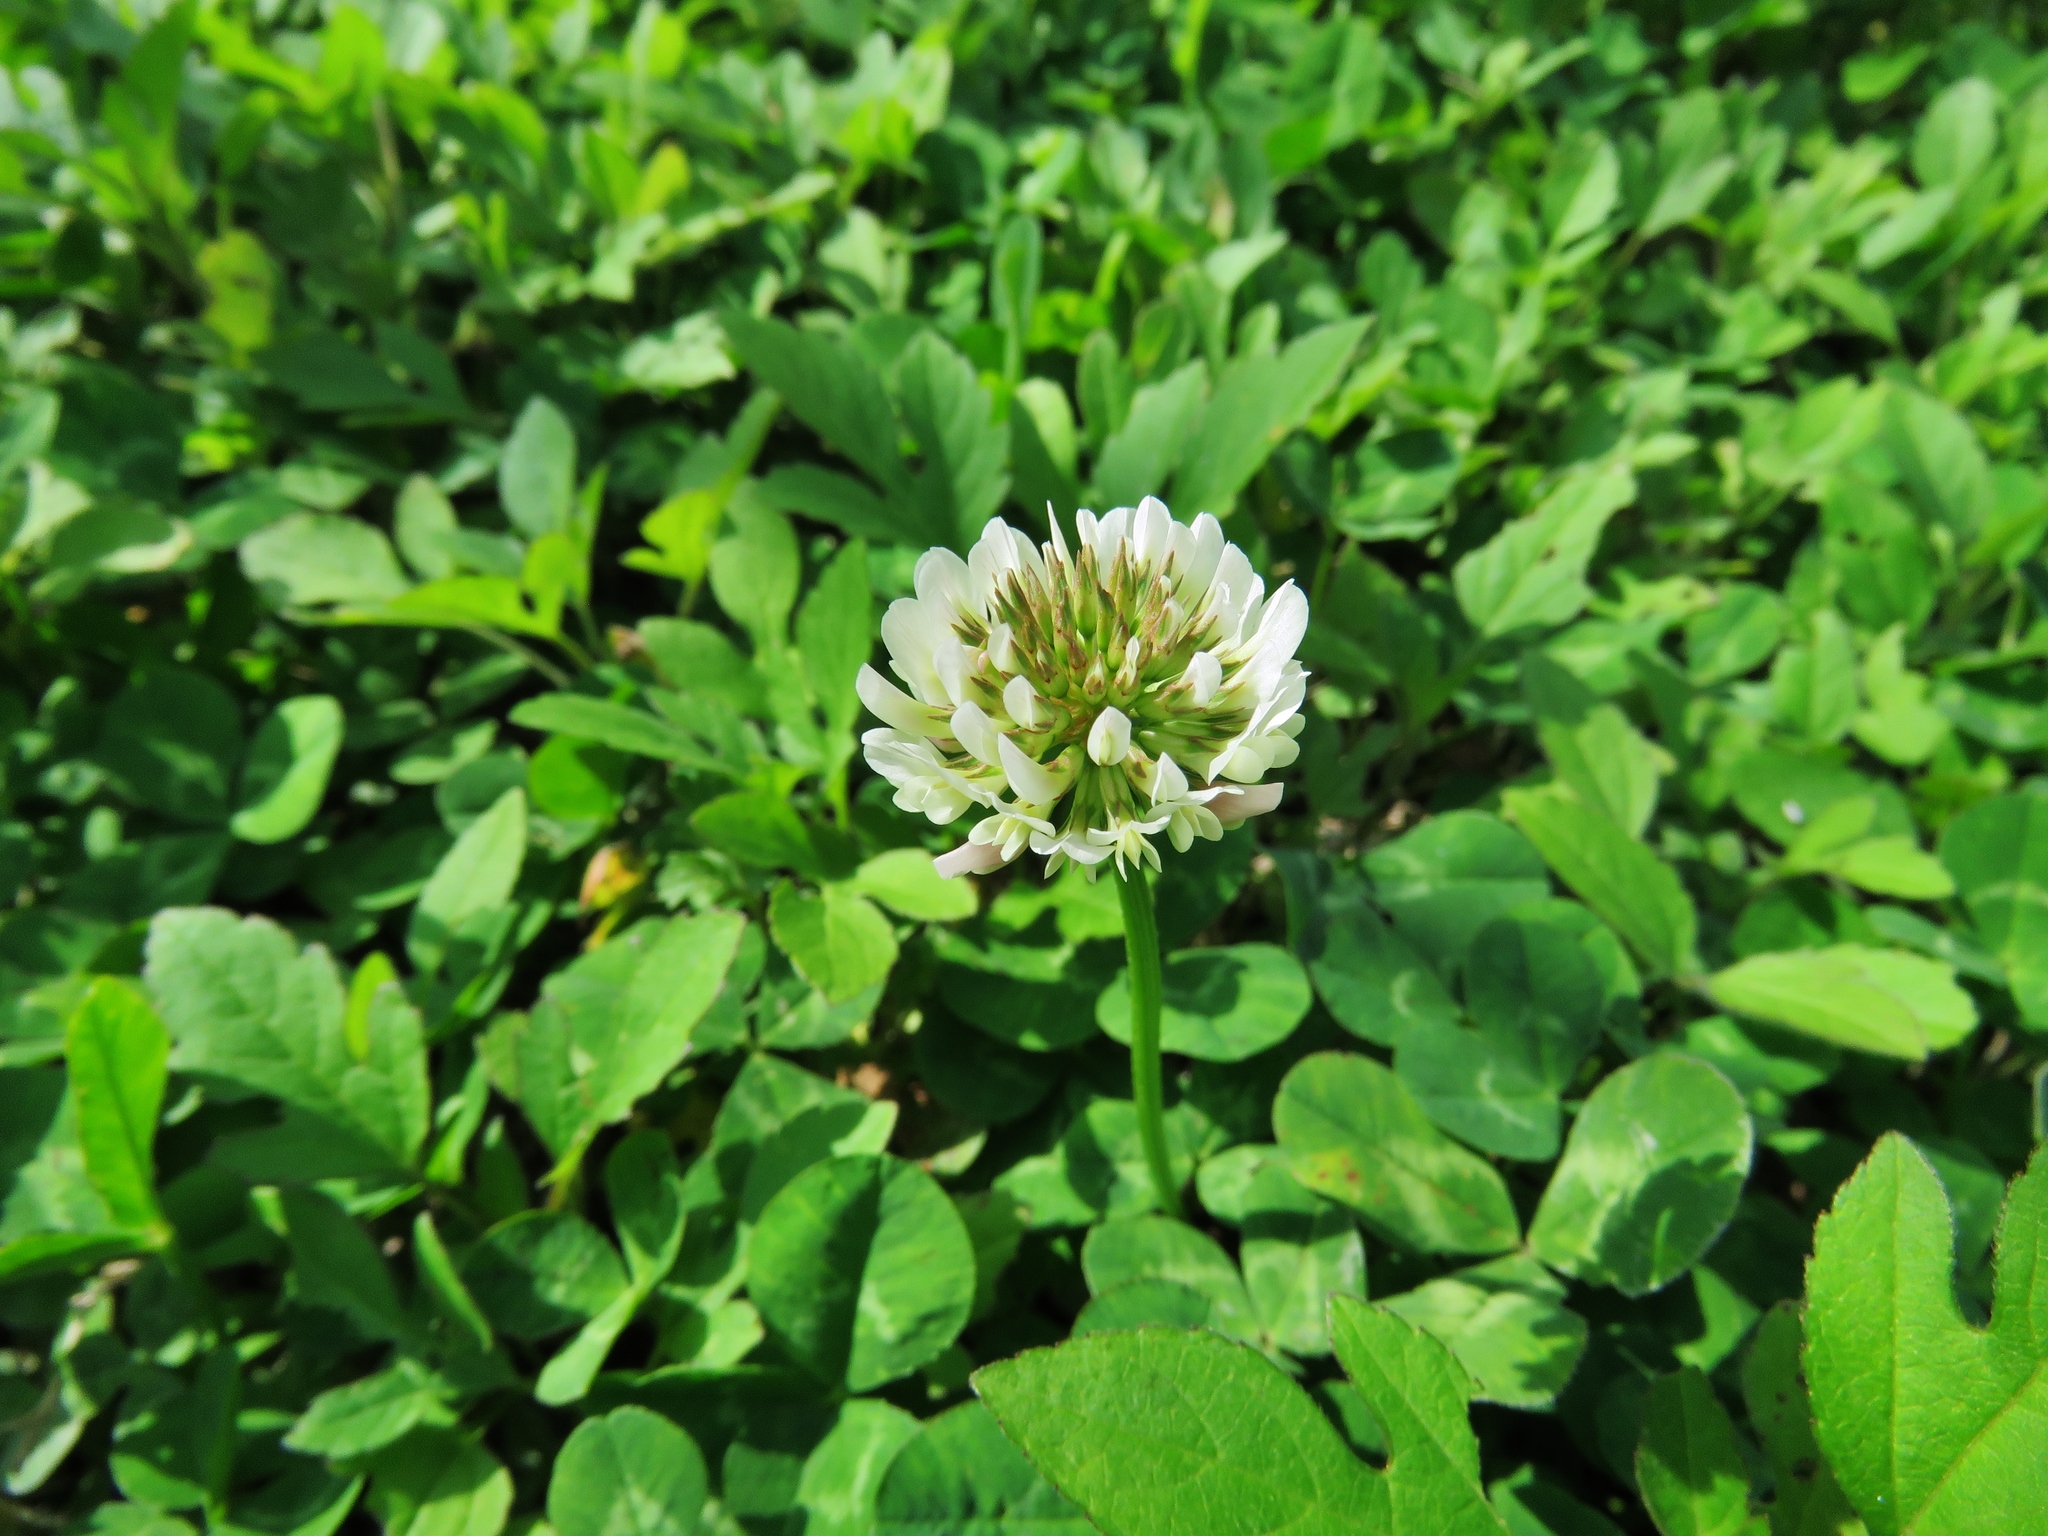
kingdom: Plantae
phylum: Tracheophyta
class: Magnoliopsida
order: Fabales
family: Fabaceae
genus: Trifolium
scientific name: Trifolium repens
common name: White clover
